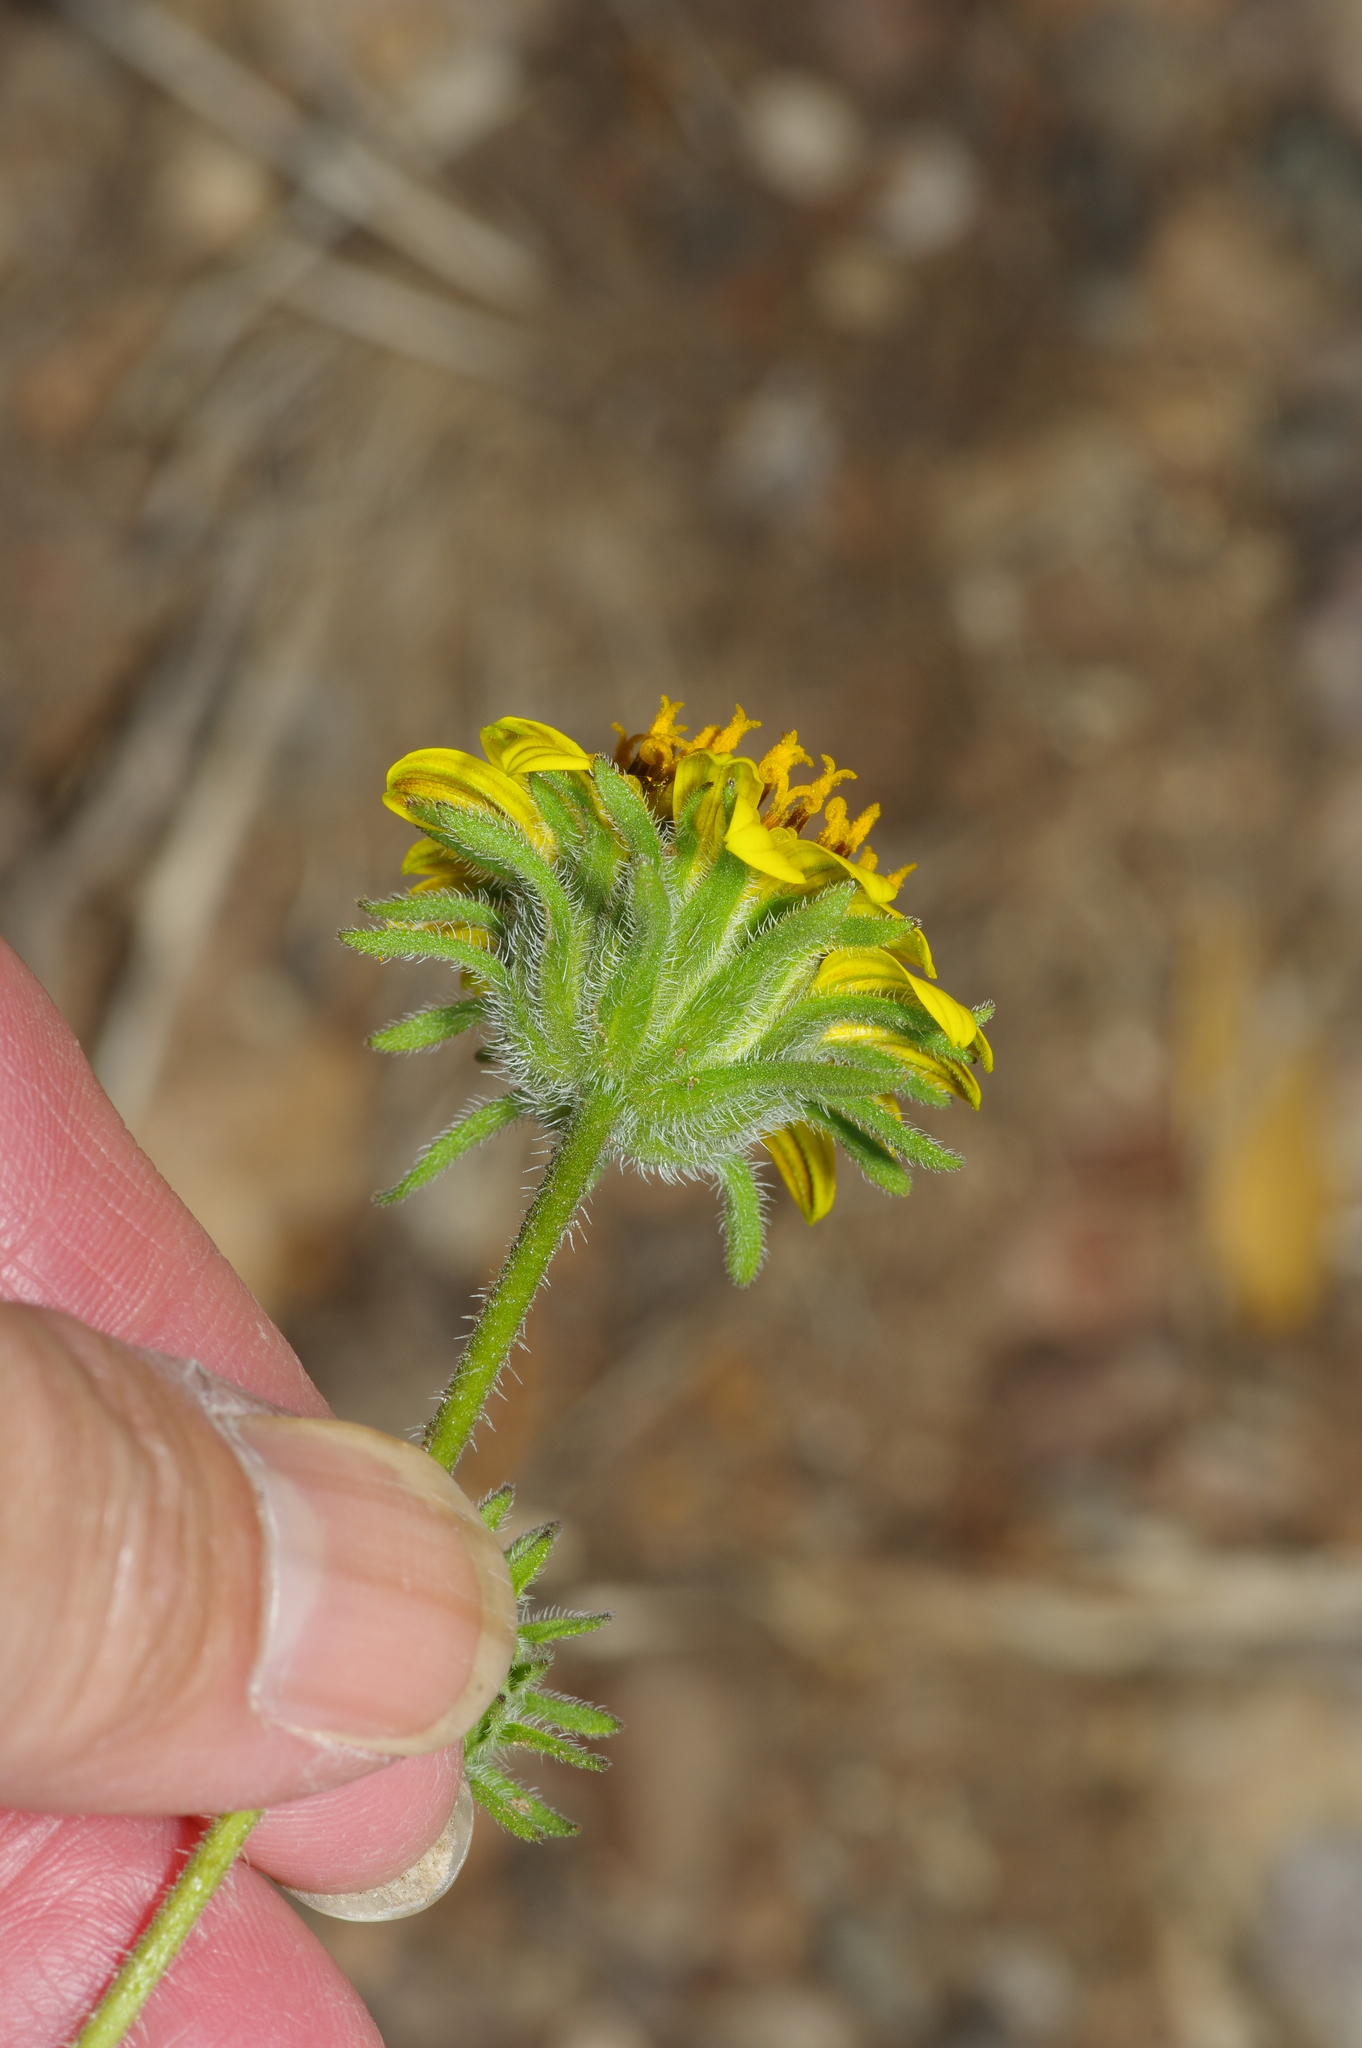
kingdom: Plantae
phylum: Tracheophyta
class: Magnoliopsida
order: Asterales
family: Asteraceae
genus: Simsia
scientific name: Simsia calva
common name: Awnless bush-sunflower
